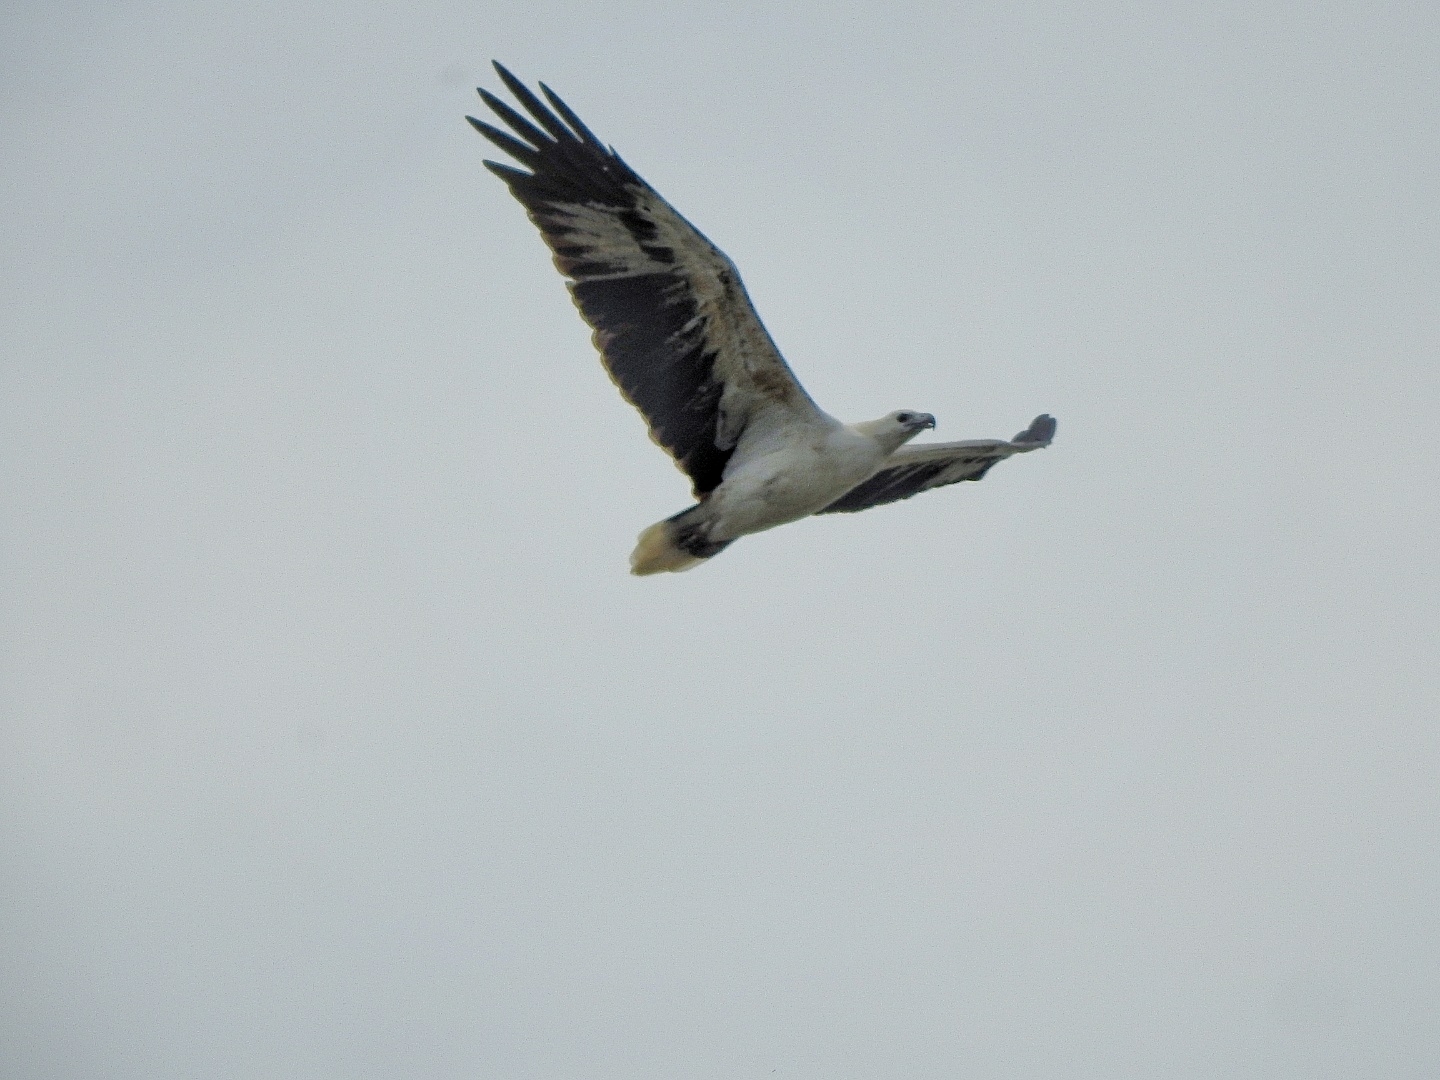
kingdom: Animalia
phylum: Chordata
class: Aves
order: Accipitriformes
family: Accipitridae
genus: Haliaeetus
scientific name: Haliaeetus leucogaster
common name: White-bellied sea eagle
